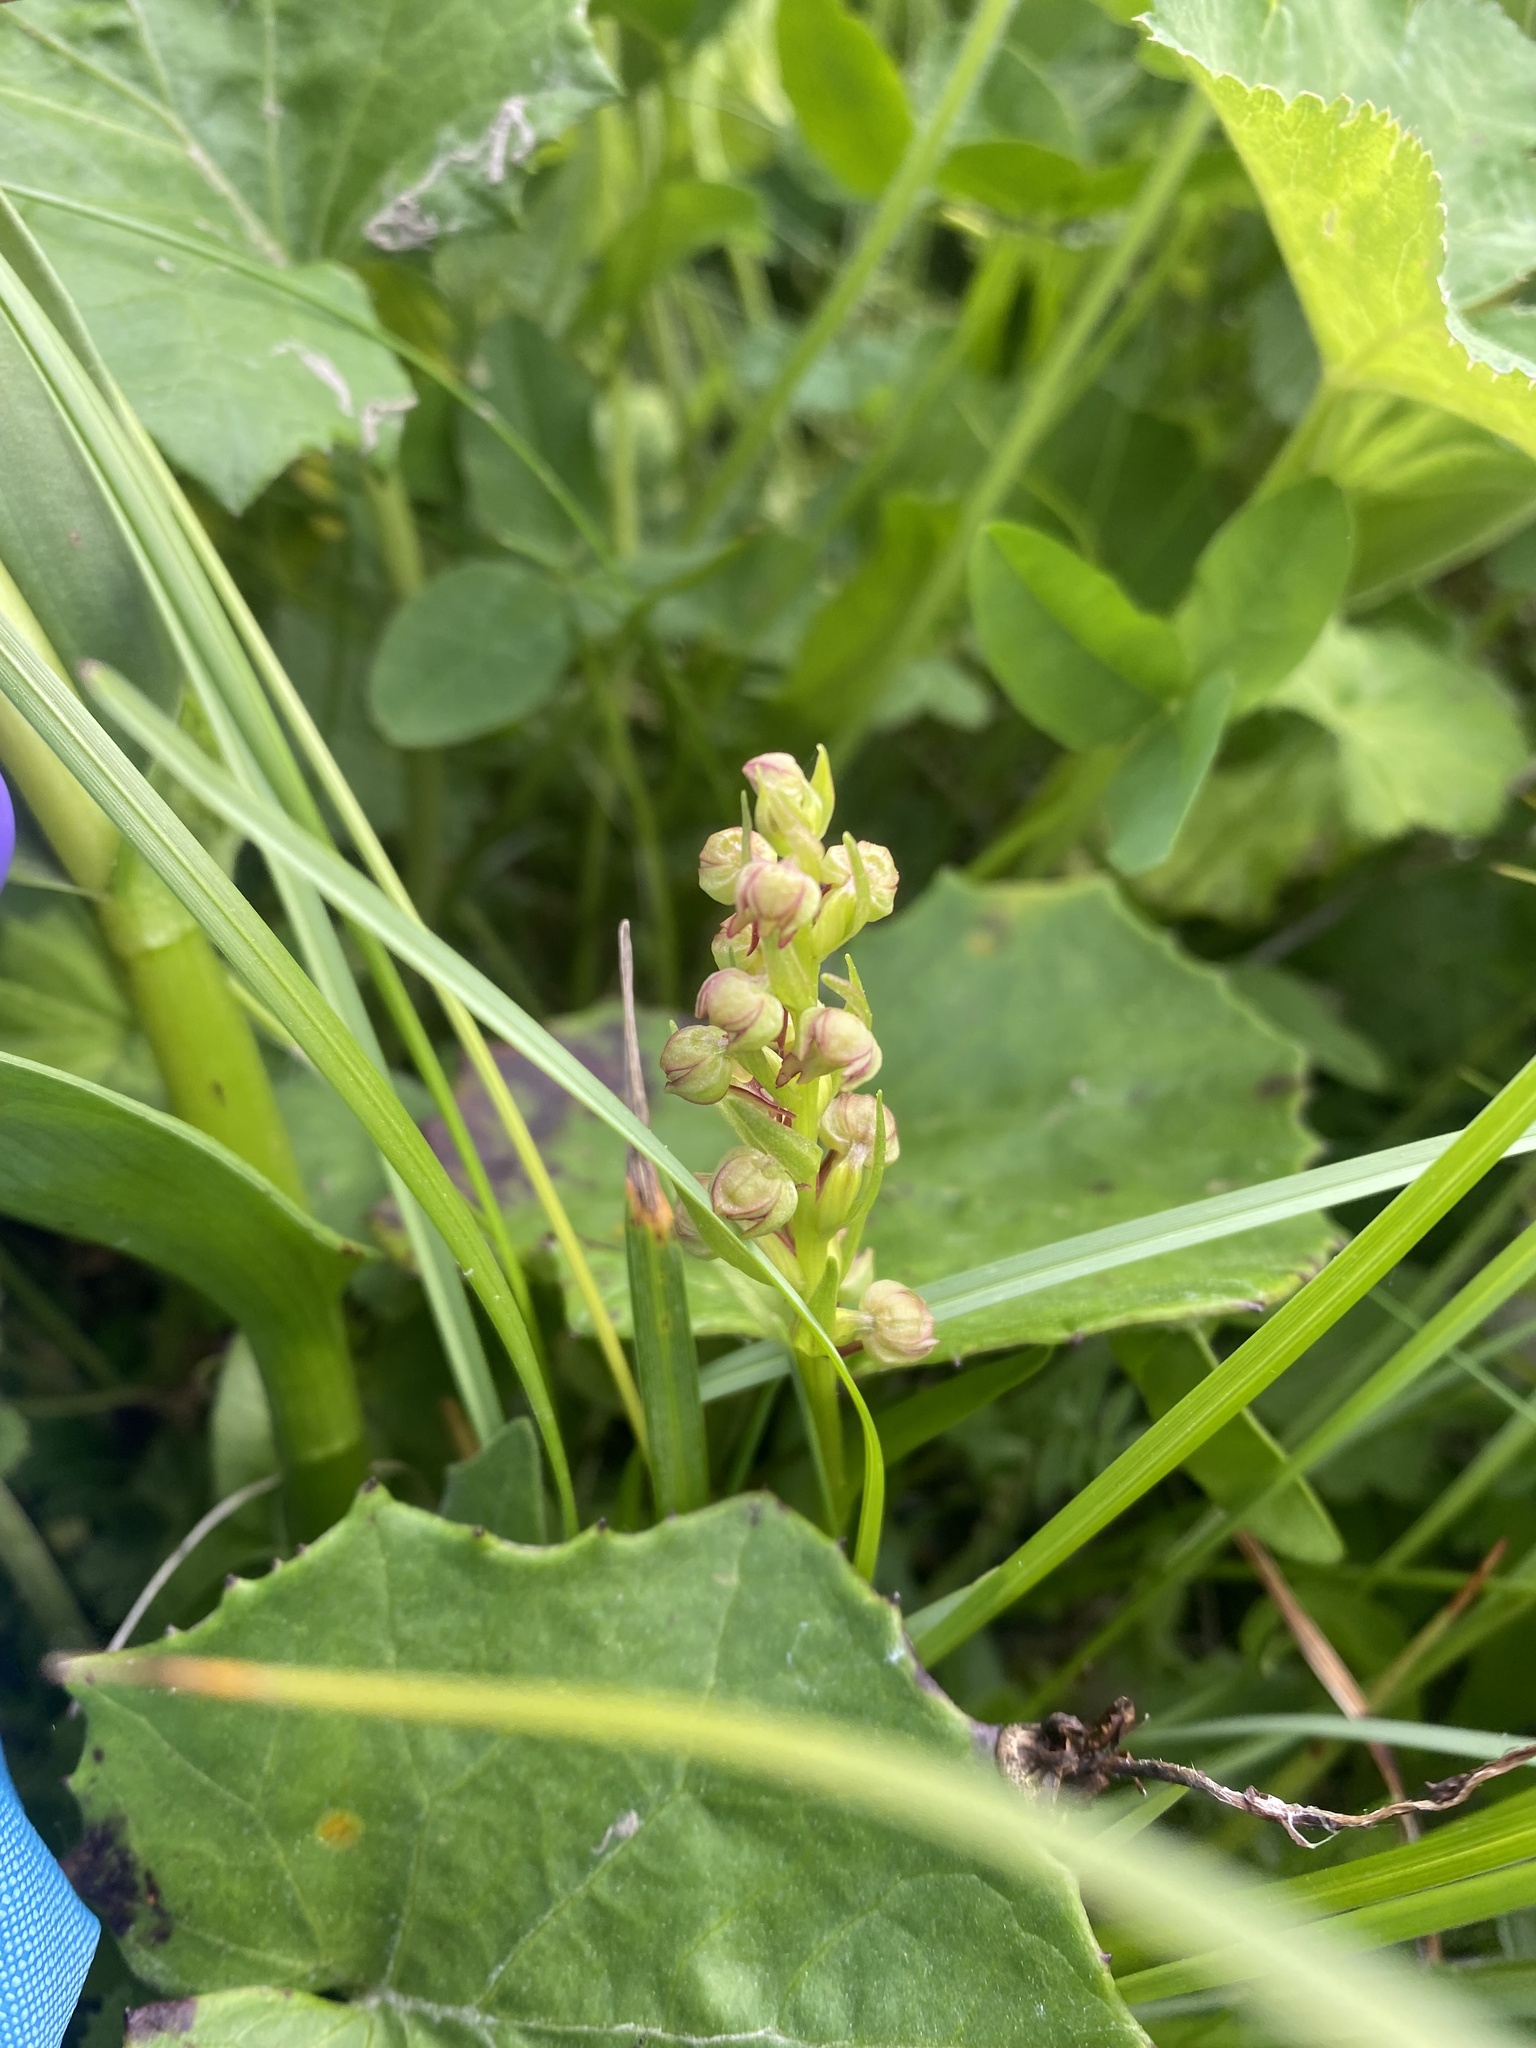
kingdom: Plantae
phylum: Tracheophyta
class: Liliopsida
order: Asparagales
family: Orchidaceae
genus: Dactylorhiza
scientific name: Dactylorhiza viridis
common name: Longbract frog orchid
